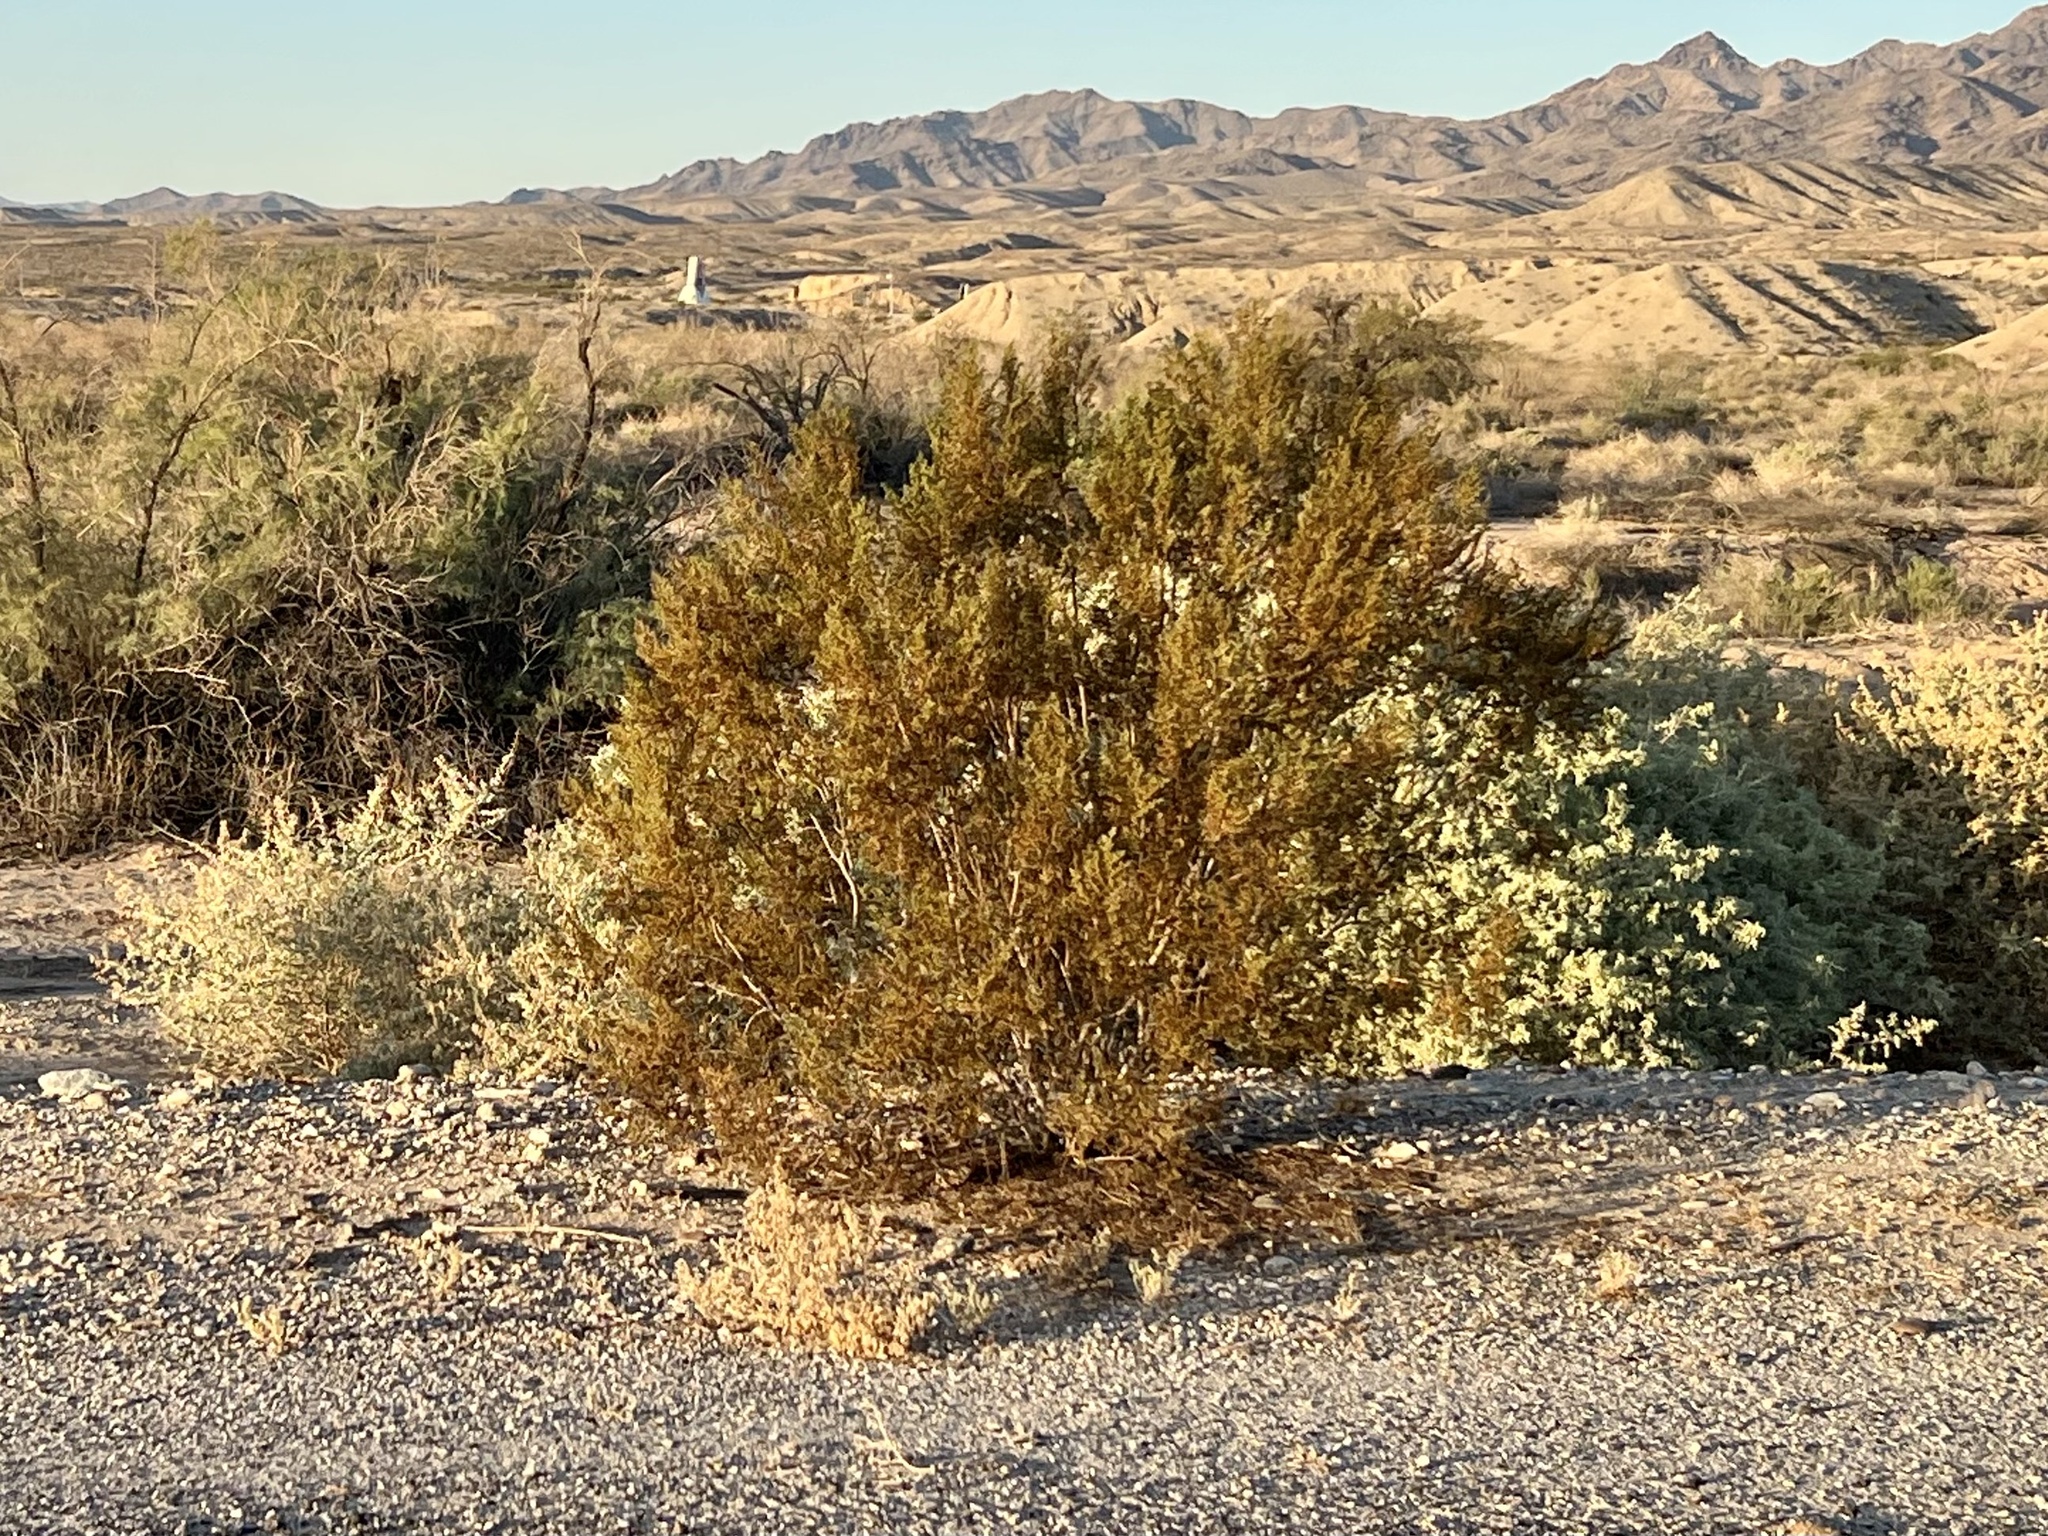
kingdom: Plantae
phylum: Tracheophyta
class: Magnoliopsida
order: Zygophyllales
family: Zygophyllaceae
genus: Larrea
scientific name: Larrea tridentata
